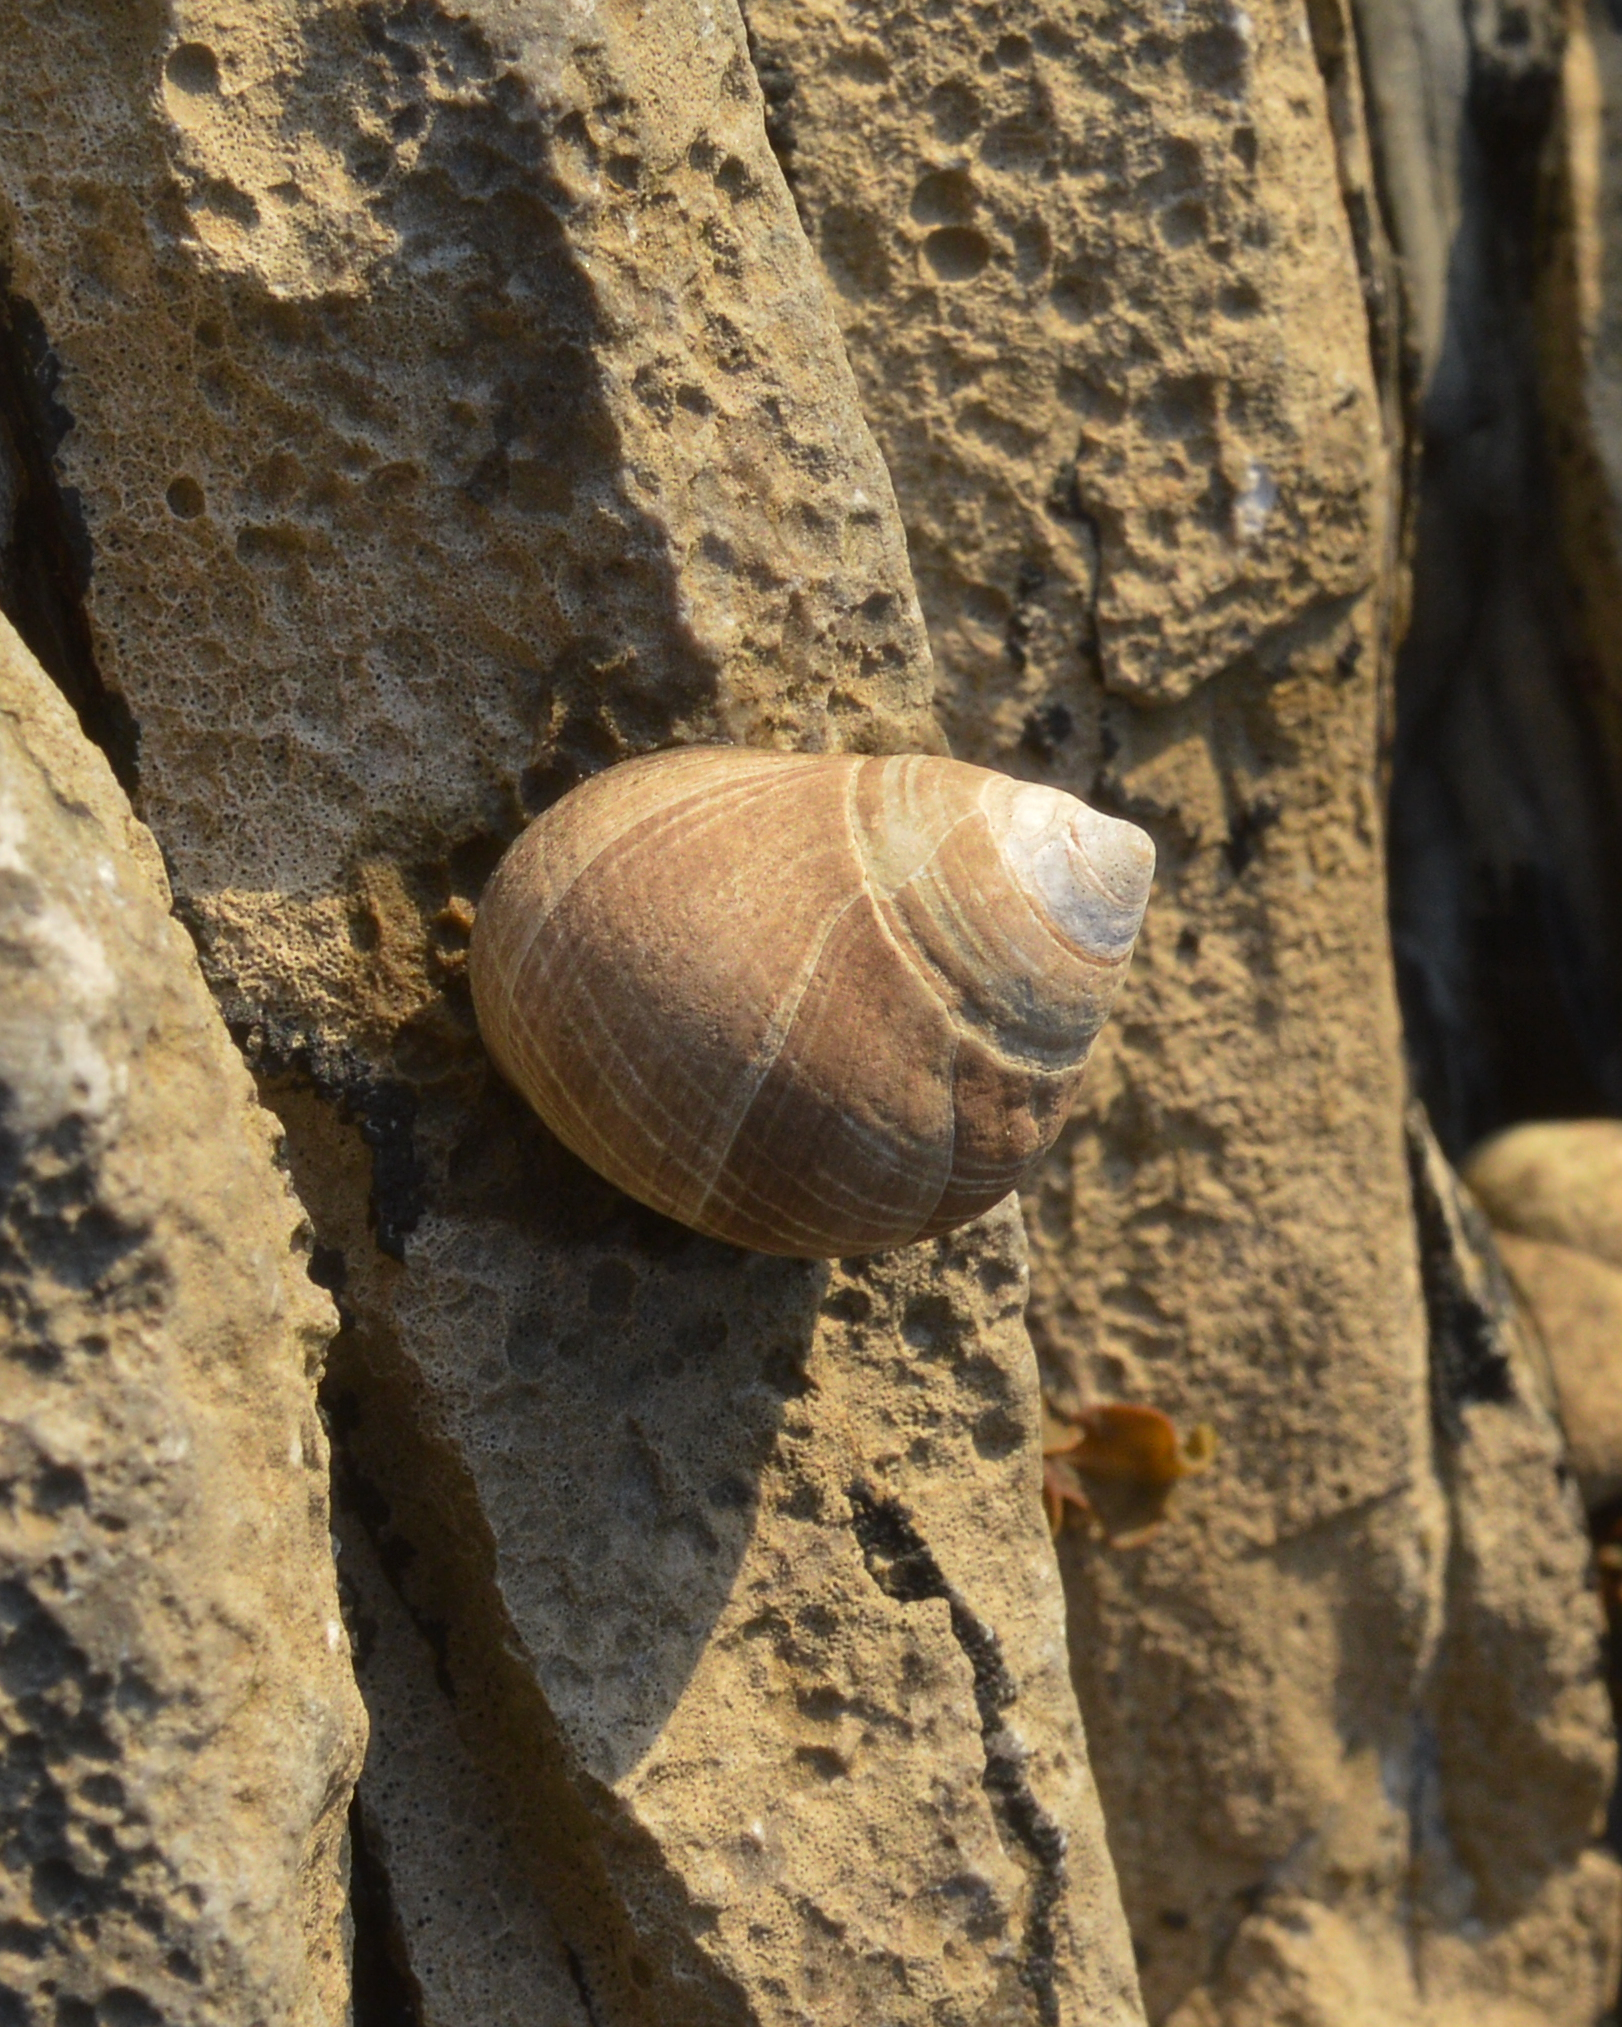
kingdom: Animalia
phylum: Mollusca
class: Gastropoda
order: Littorinimorpha
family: Littorinidae
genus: Littorina
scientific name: Littorina littorea
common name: Common periwinkle
